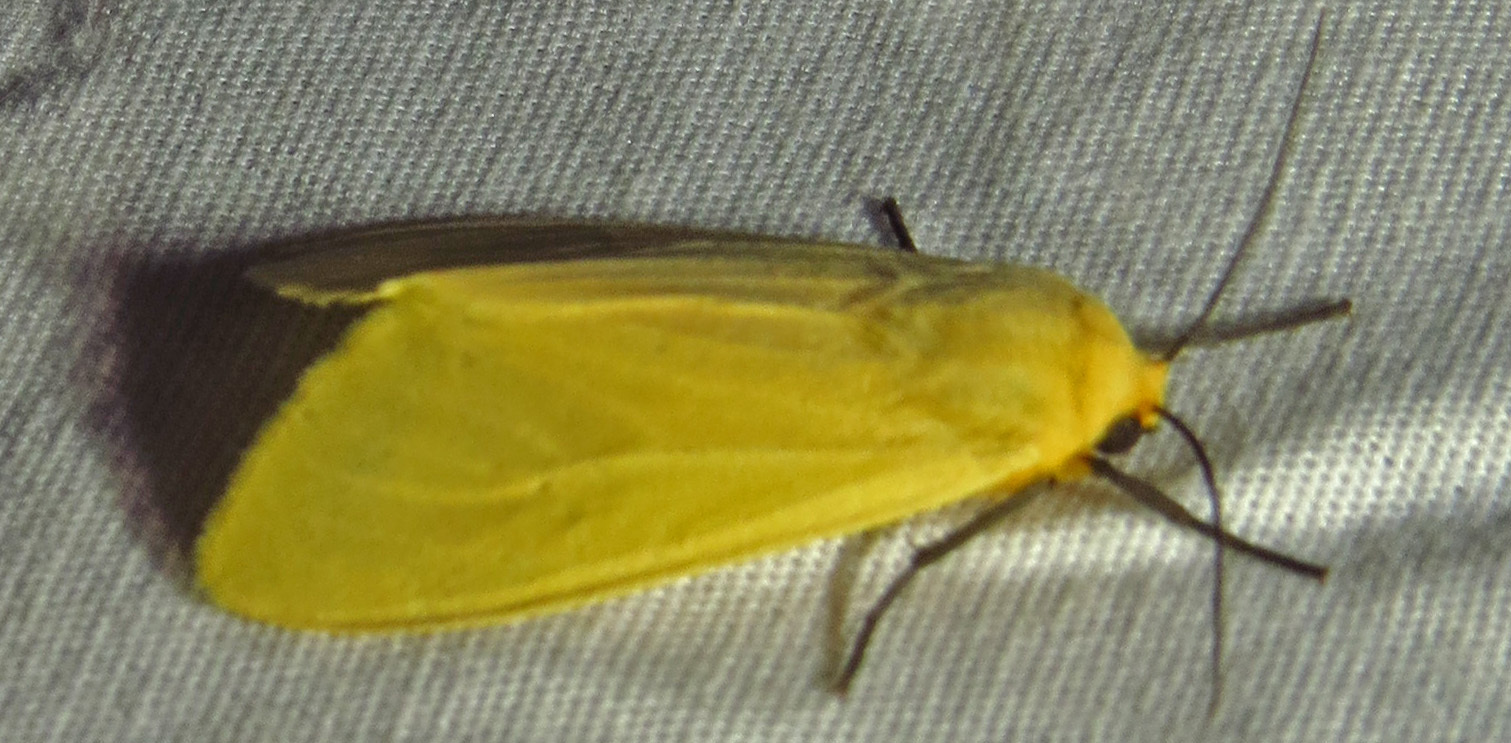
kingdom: Animalia
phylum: Arthropoda
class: Insecta
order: Lepidoptera
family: Erebidae
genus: Pareuchaetes
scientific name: Pareuchaetes insulata
